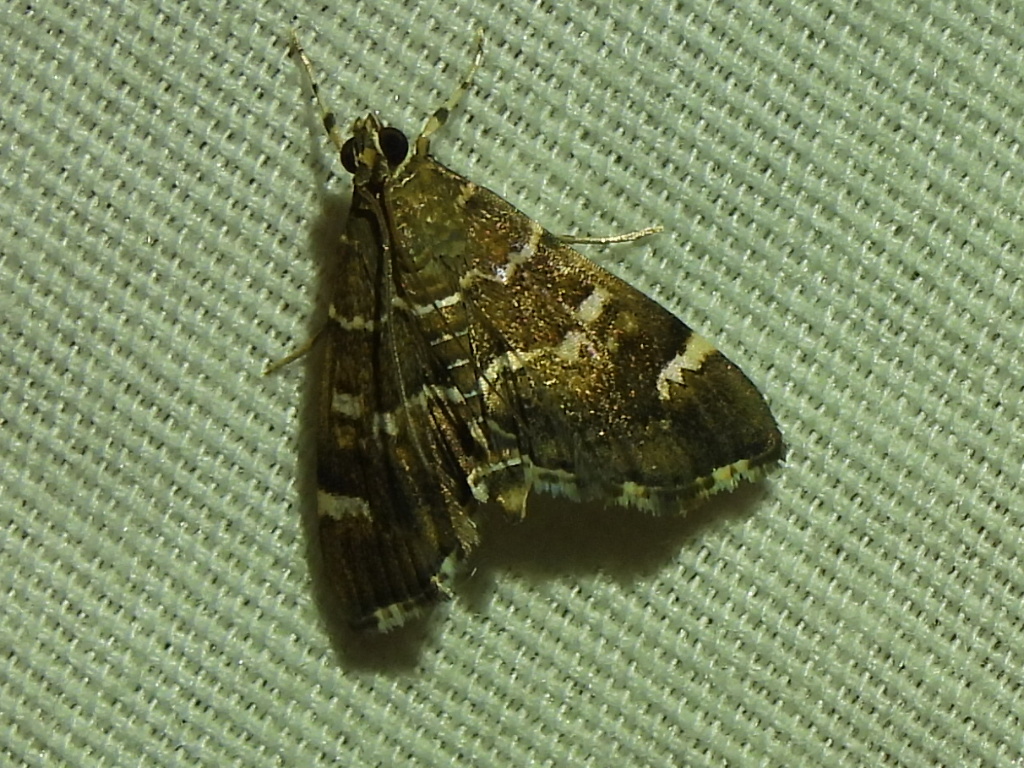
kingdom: Animalia
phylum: Arthropoda
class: Insecta
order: Lepidoptera
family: Crambidae
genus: Hymenia
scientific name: Hymenia perspectalis
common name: Spotted beet webworm
